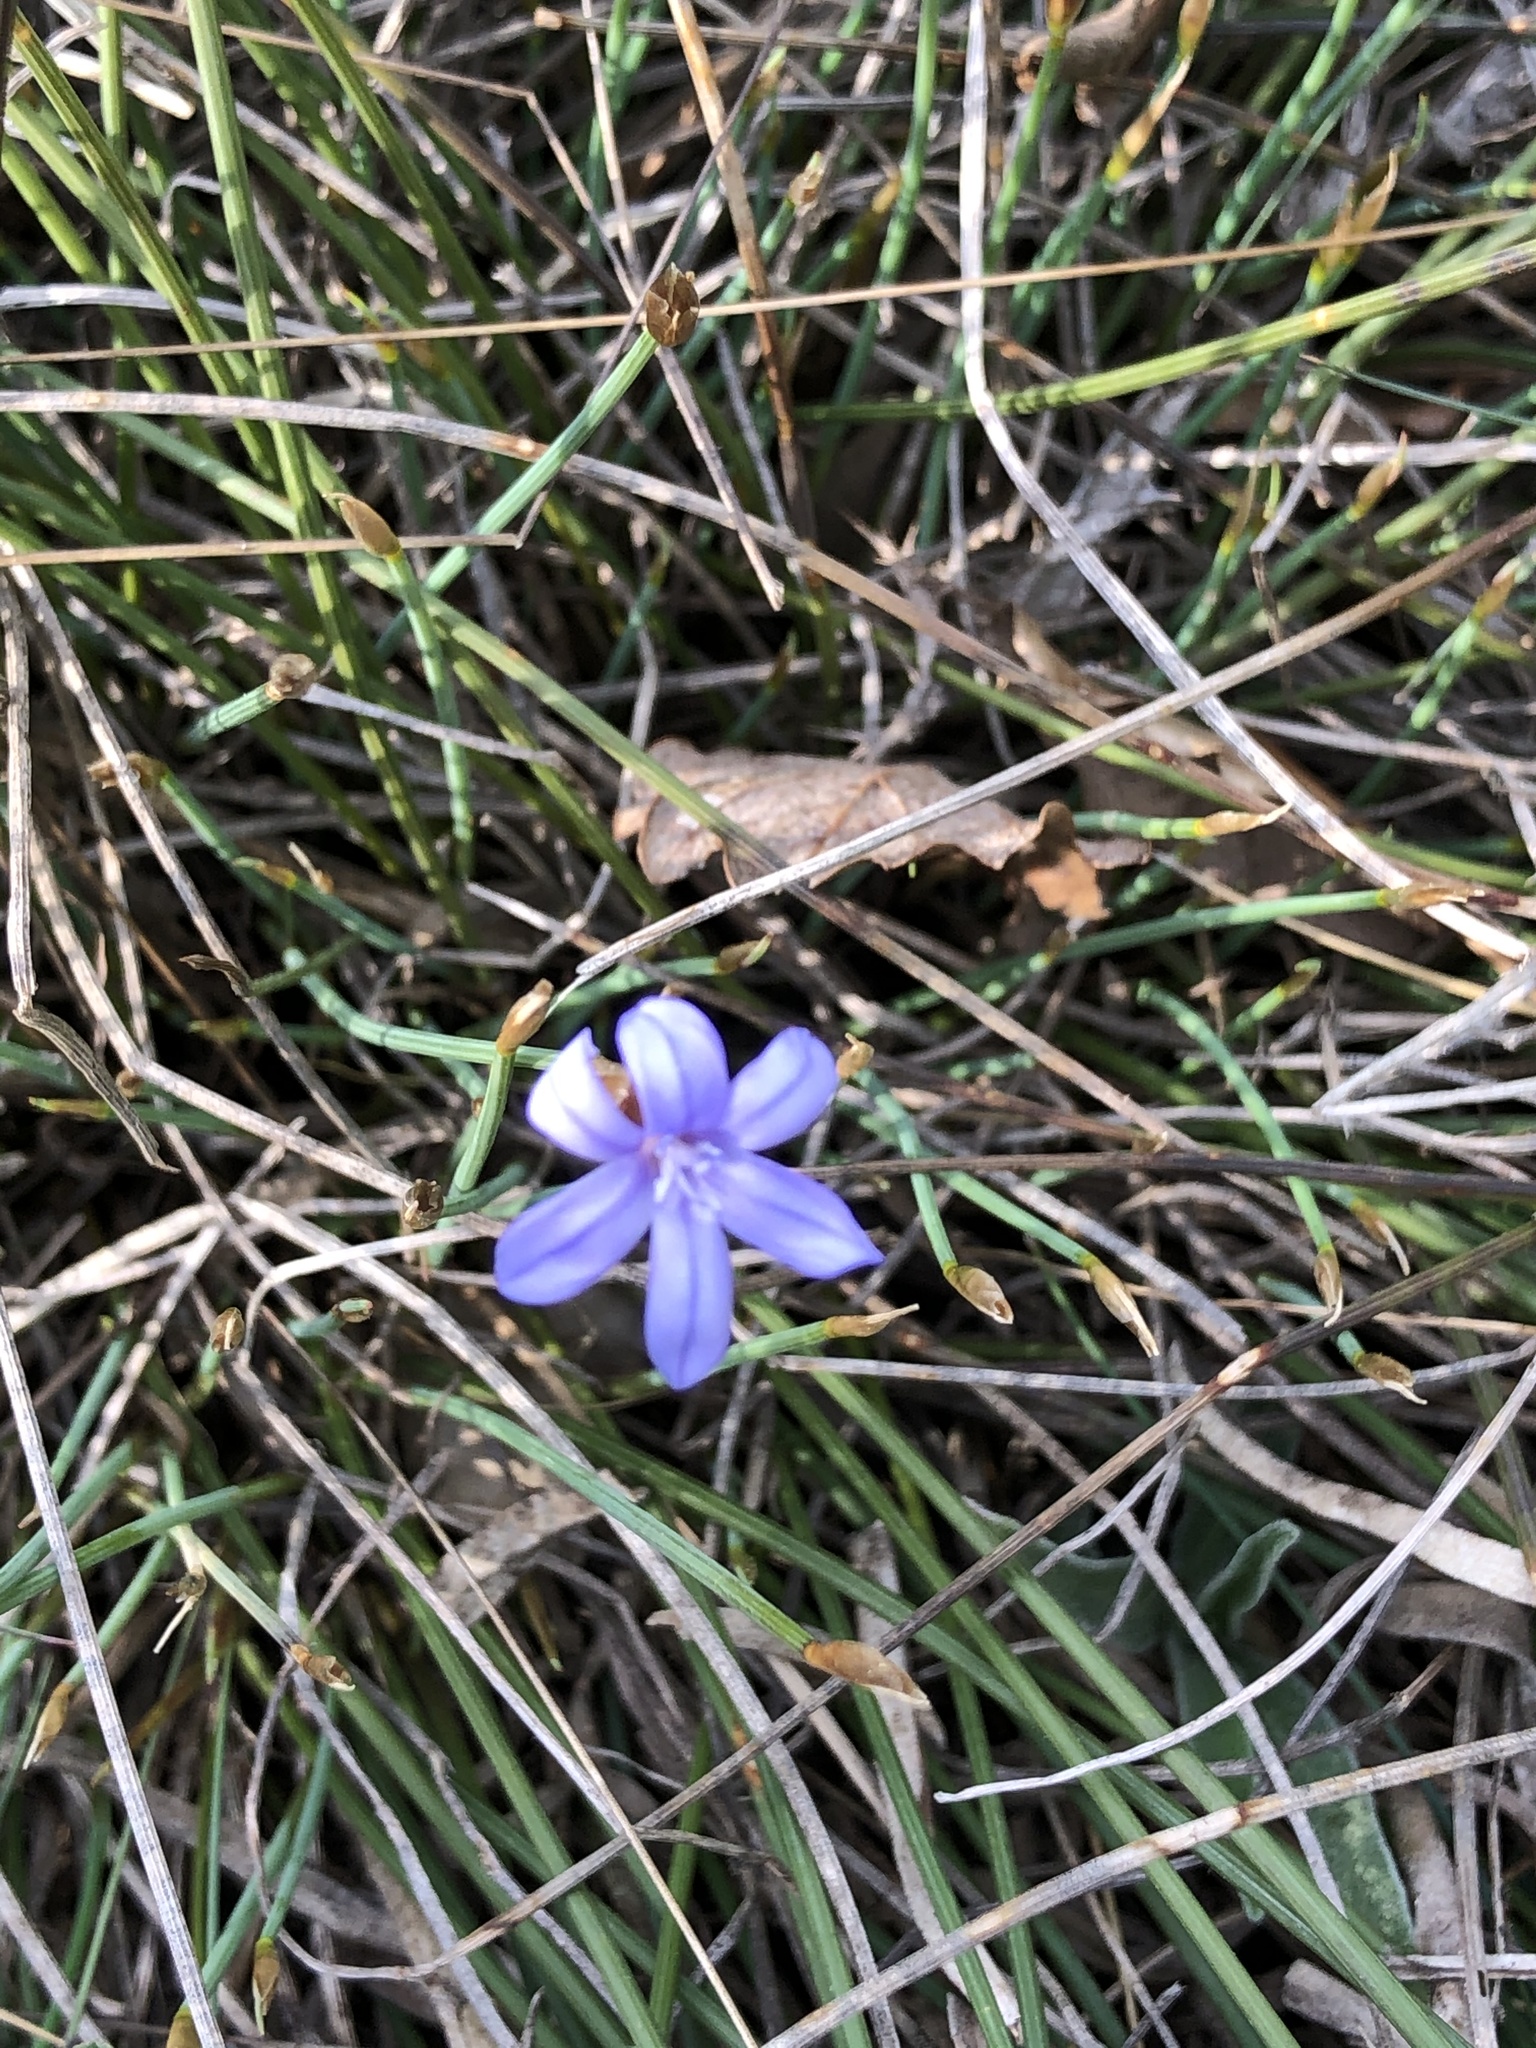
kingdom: Plantae
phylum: Tracheophyta
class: Liliopsida
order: Asparagales
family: Asparagaceae
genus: Aphyllanthes
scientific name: Aphyllanthes monspeliensis
